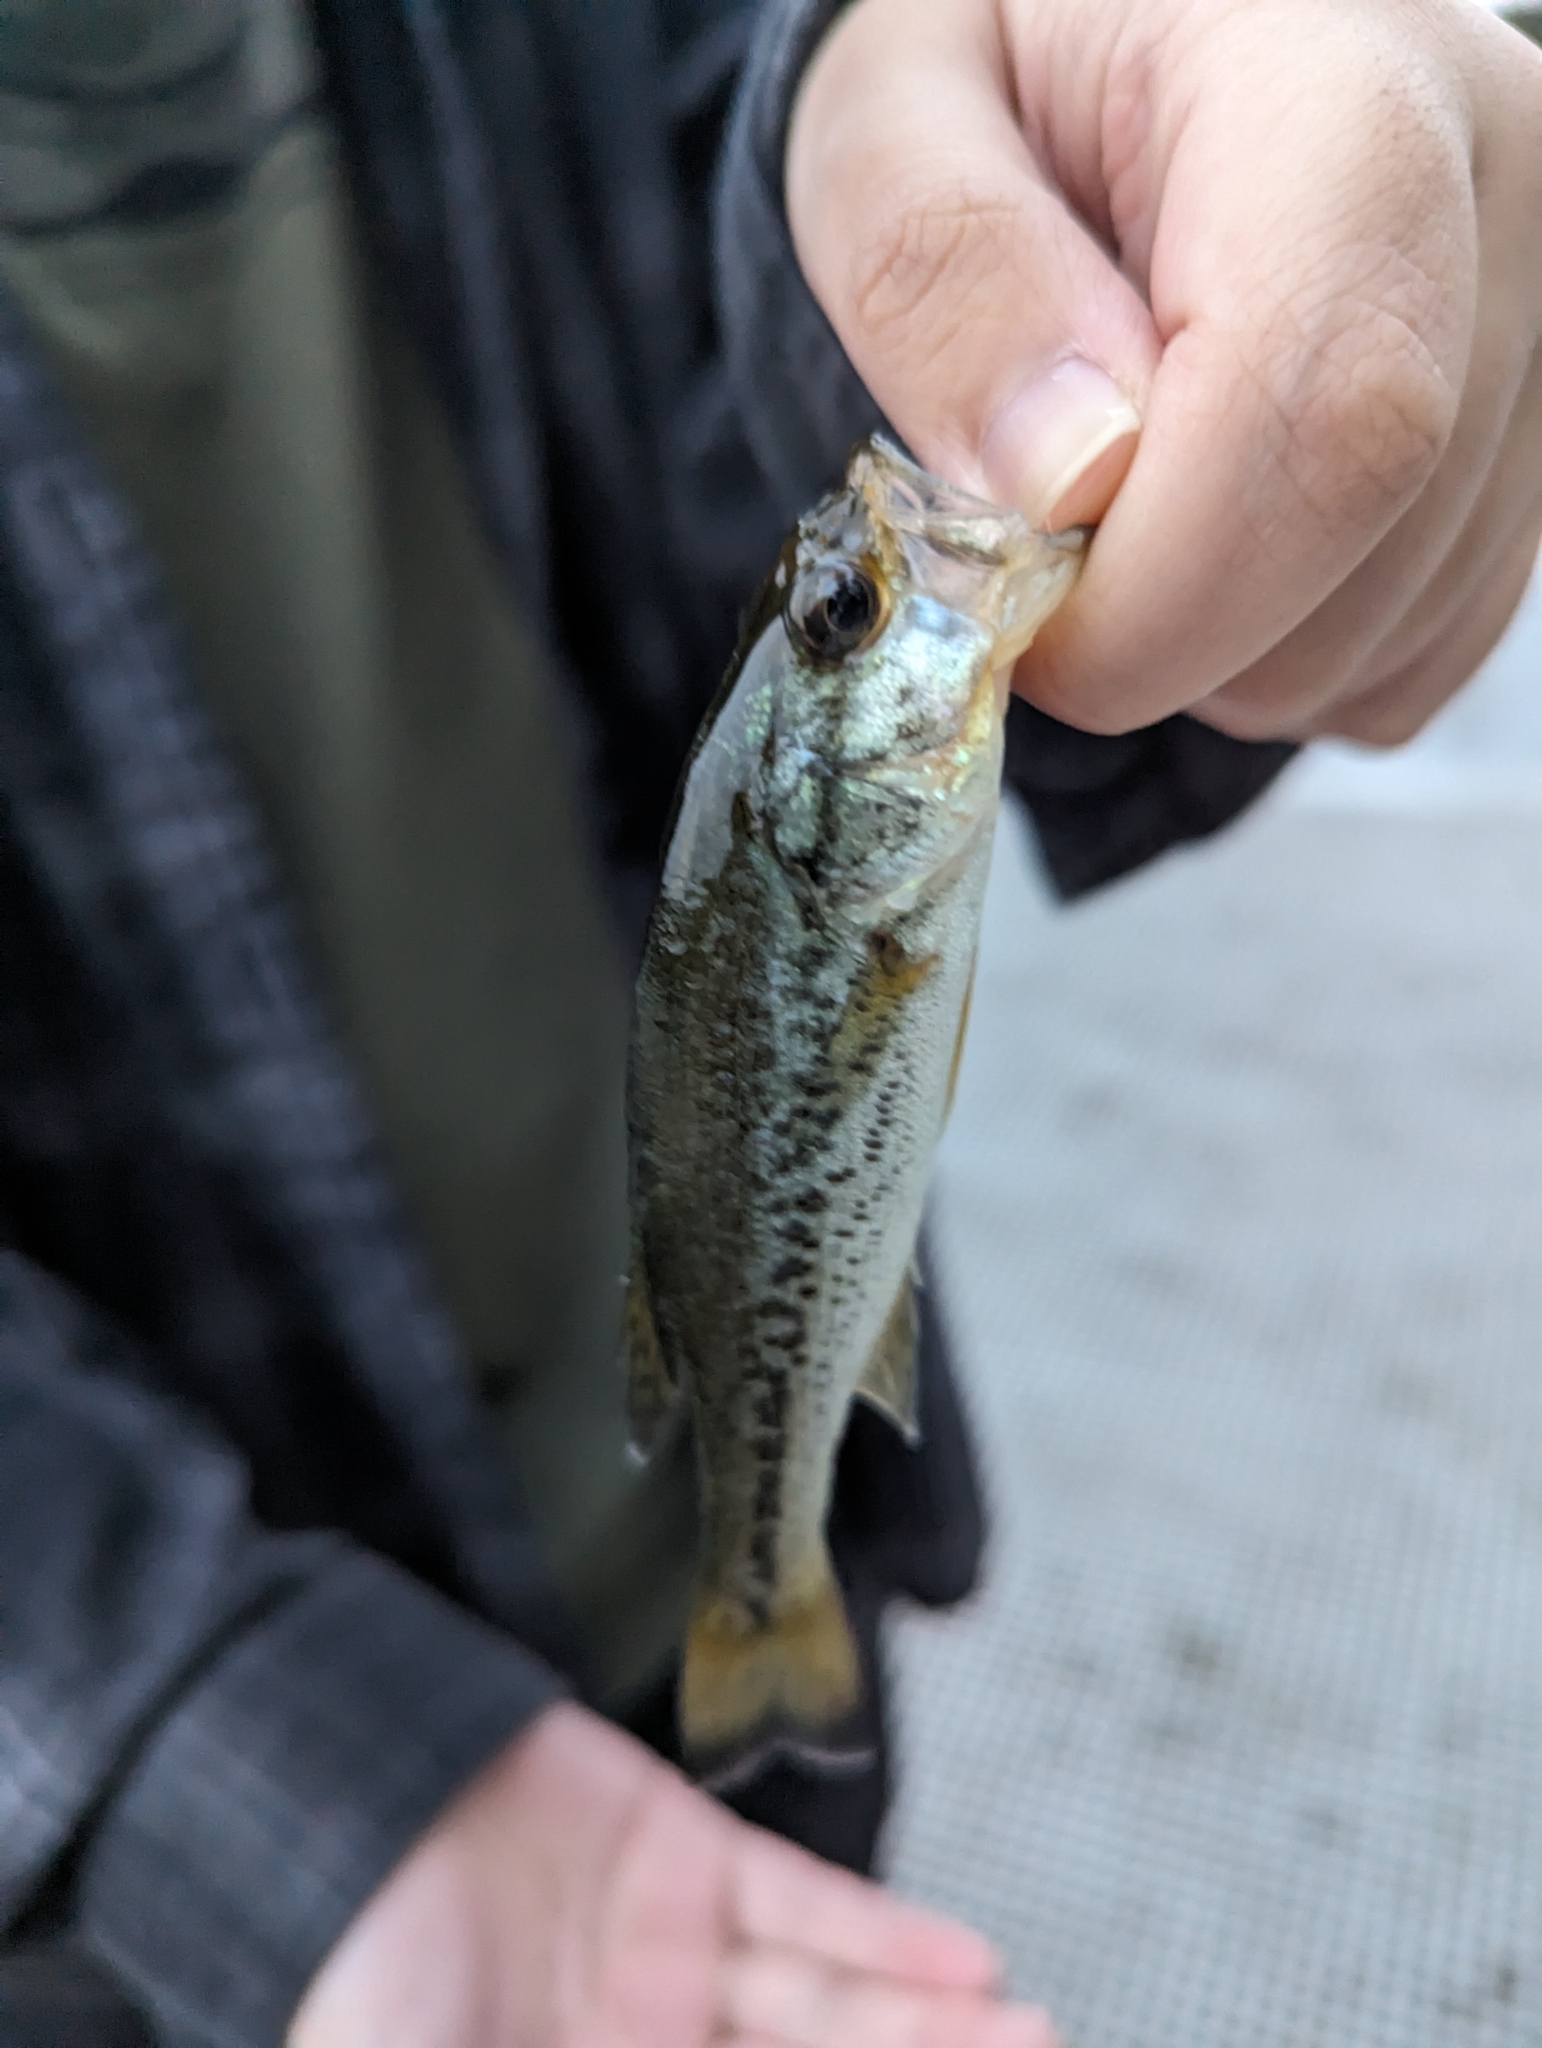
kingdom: Animalia
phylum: Chordata
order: Perciformes
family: Centrarchidae
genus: Micropterus
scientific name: Micropterus
